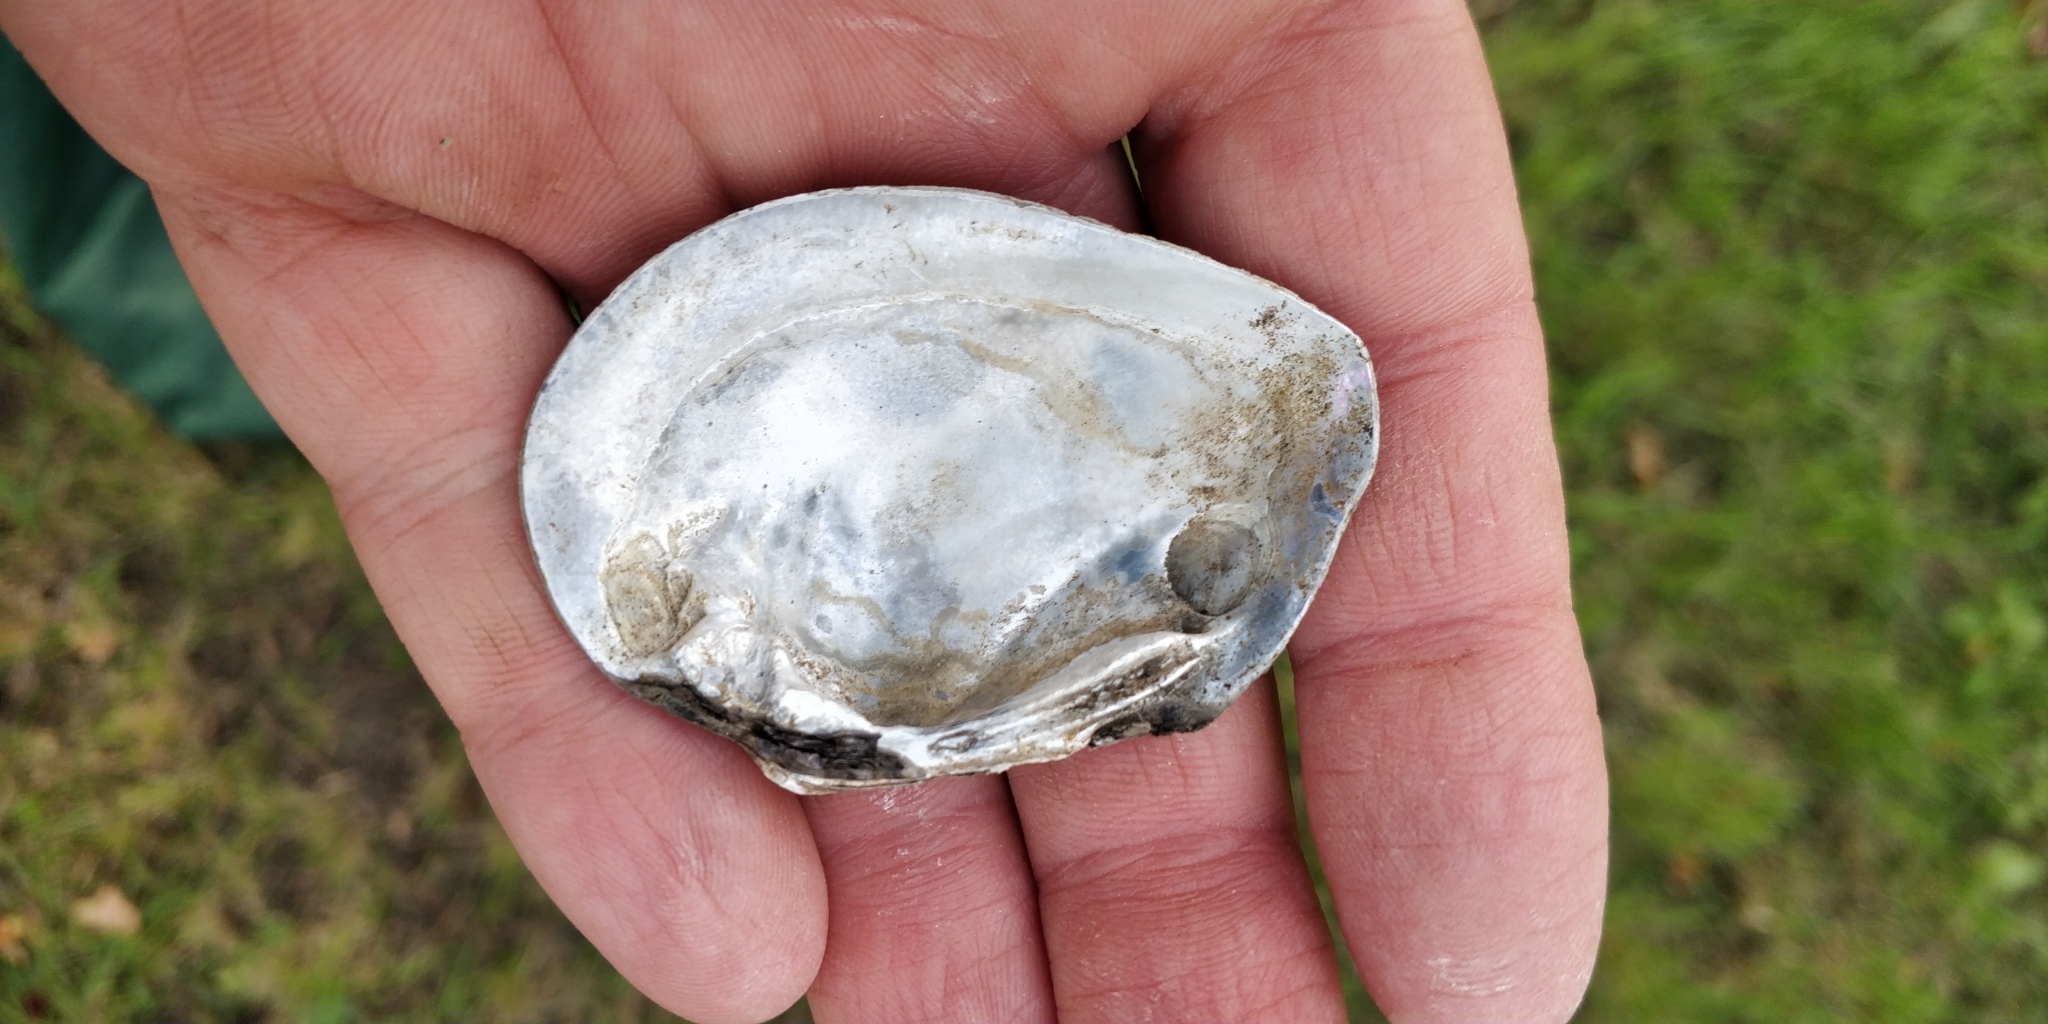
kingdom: Animalia
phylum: Mollusca
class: Bivalvia
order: Unionida
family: Unionidae
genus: Fusconaia
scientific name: Fusconaia flava
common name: Wabash pigtoe
